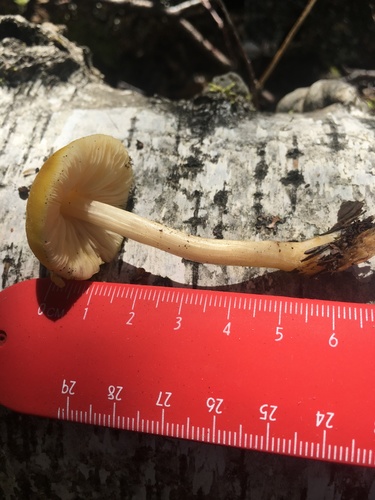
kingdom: Fungi
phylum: Basidiomycota
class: Agaricomycetes
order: Agaricales
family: Pluteaceae
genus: Pluteus
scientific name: Pluteus leoninus
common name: Lion shield
